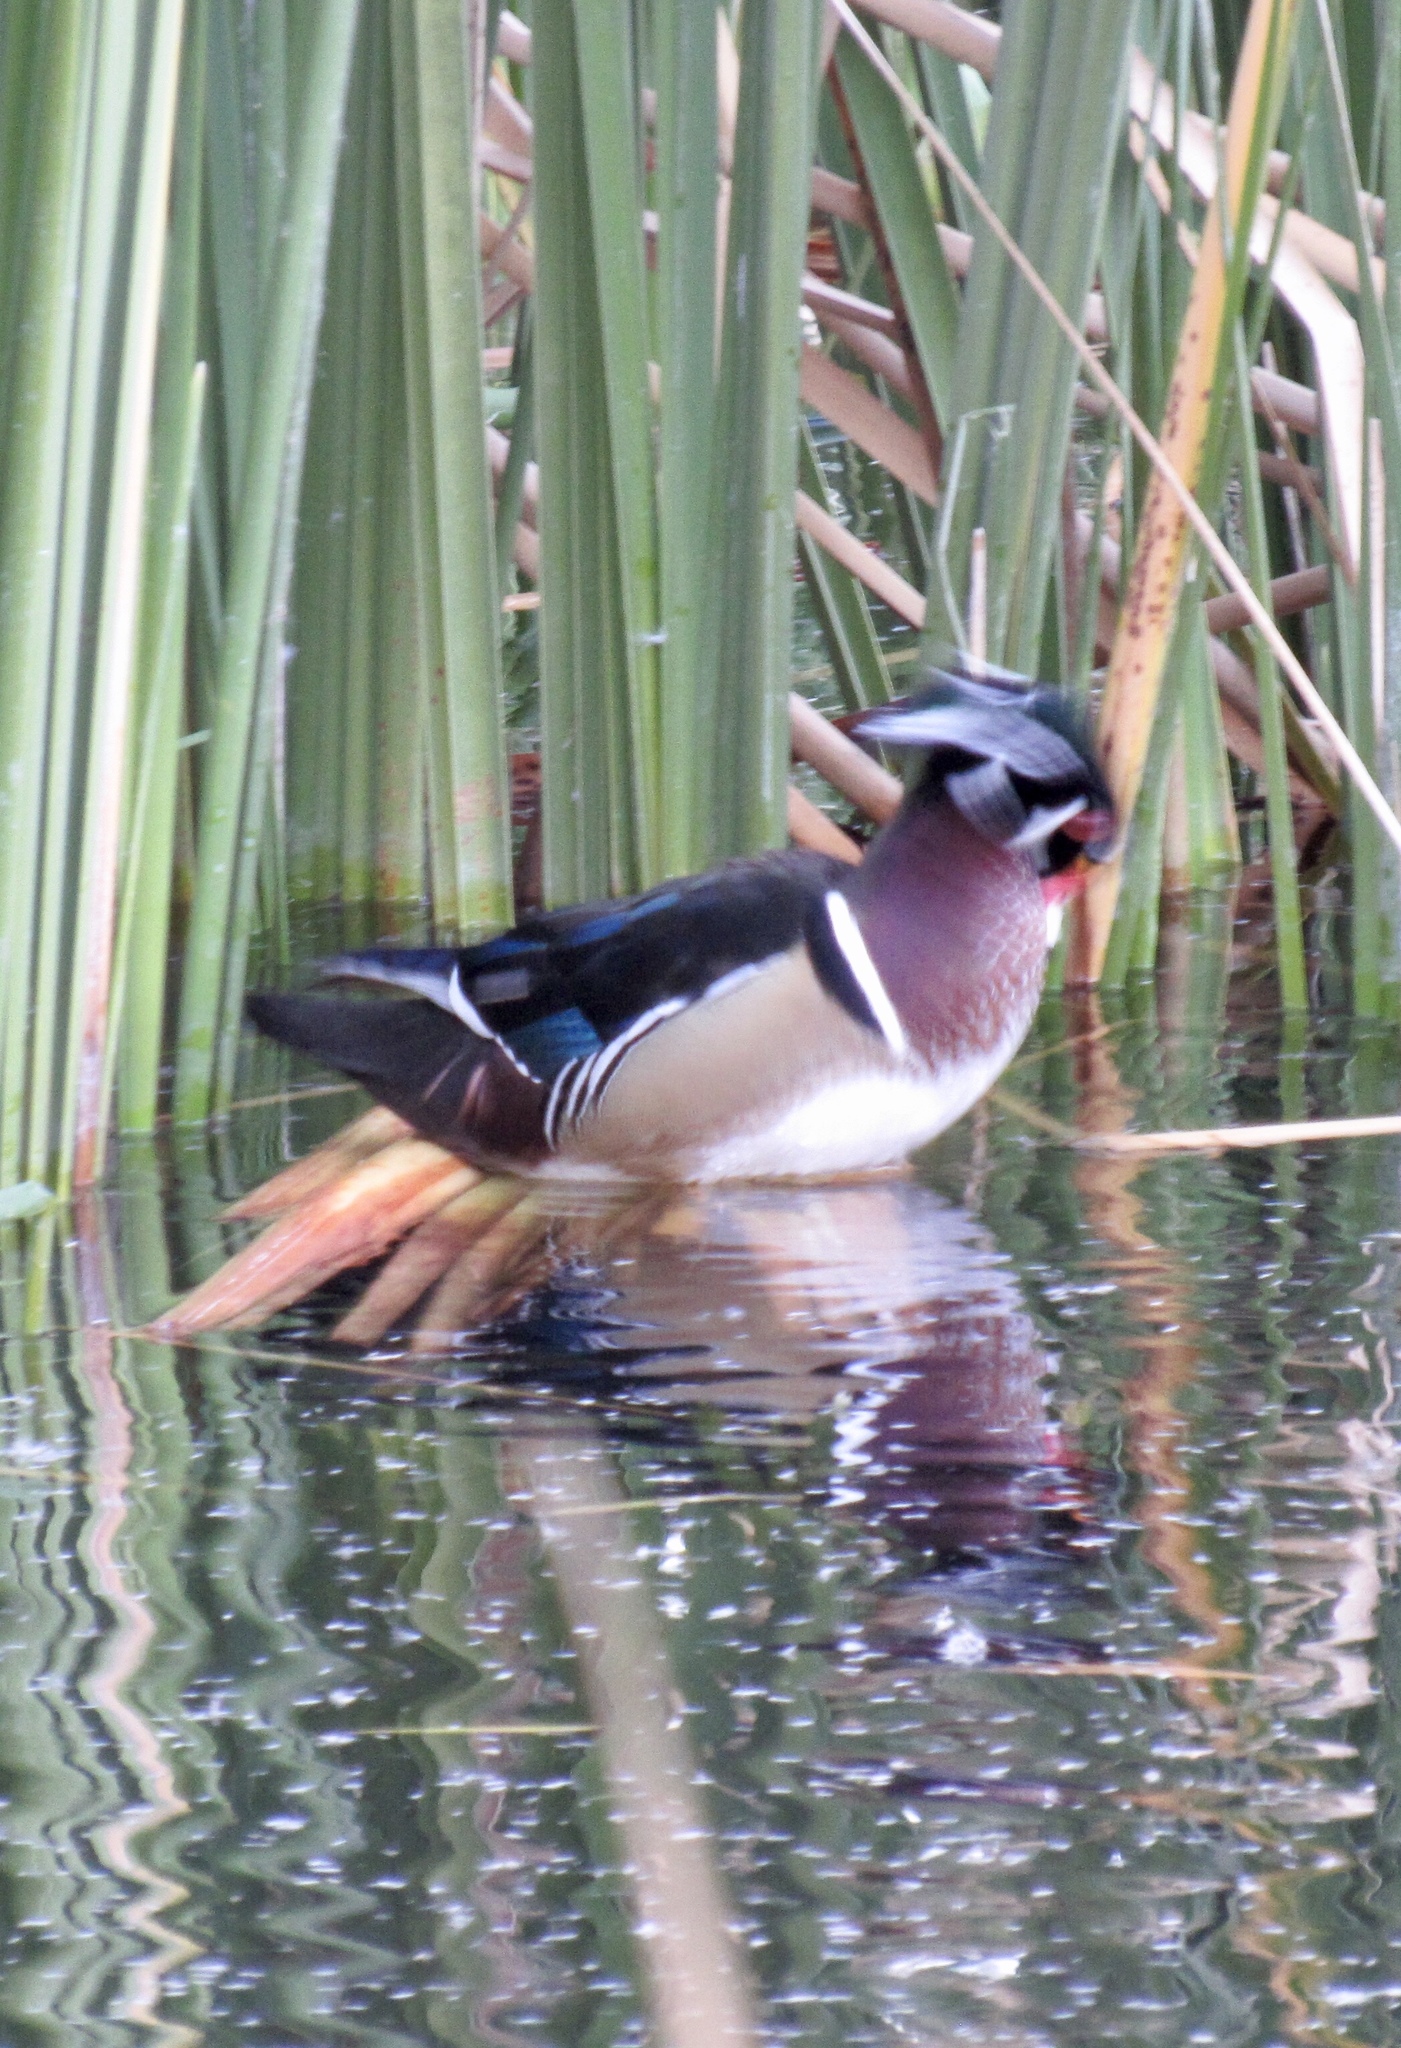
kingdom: Animalia
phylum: Chordata
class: Aves
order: Anseriformes
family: Anatidae
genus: Aix
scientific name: Aix sponsa
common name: Wood duck
